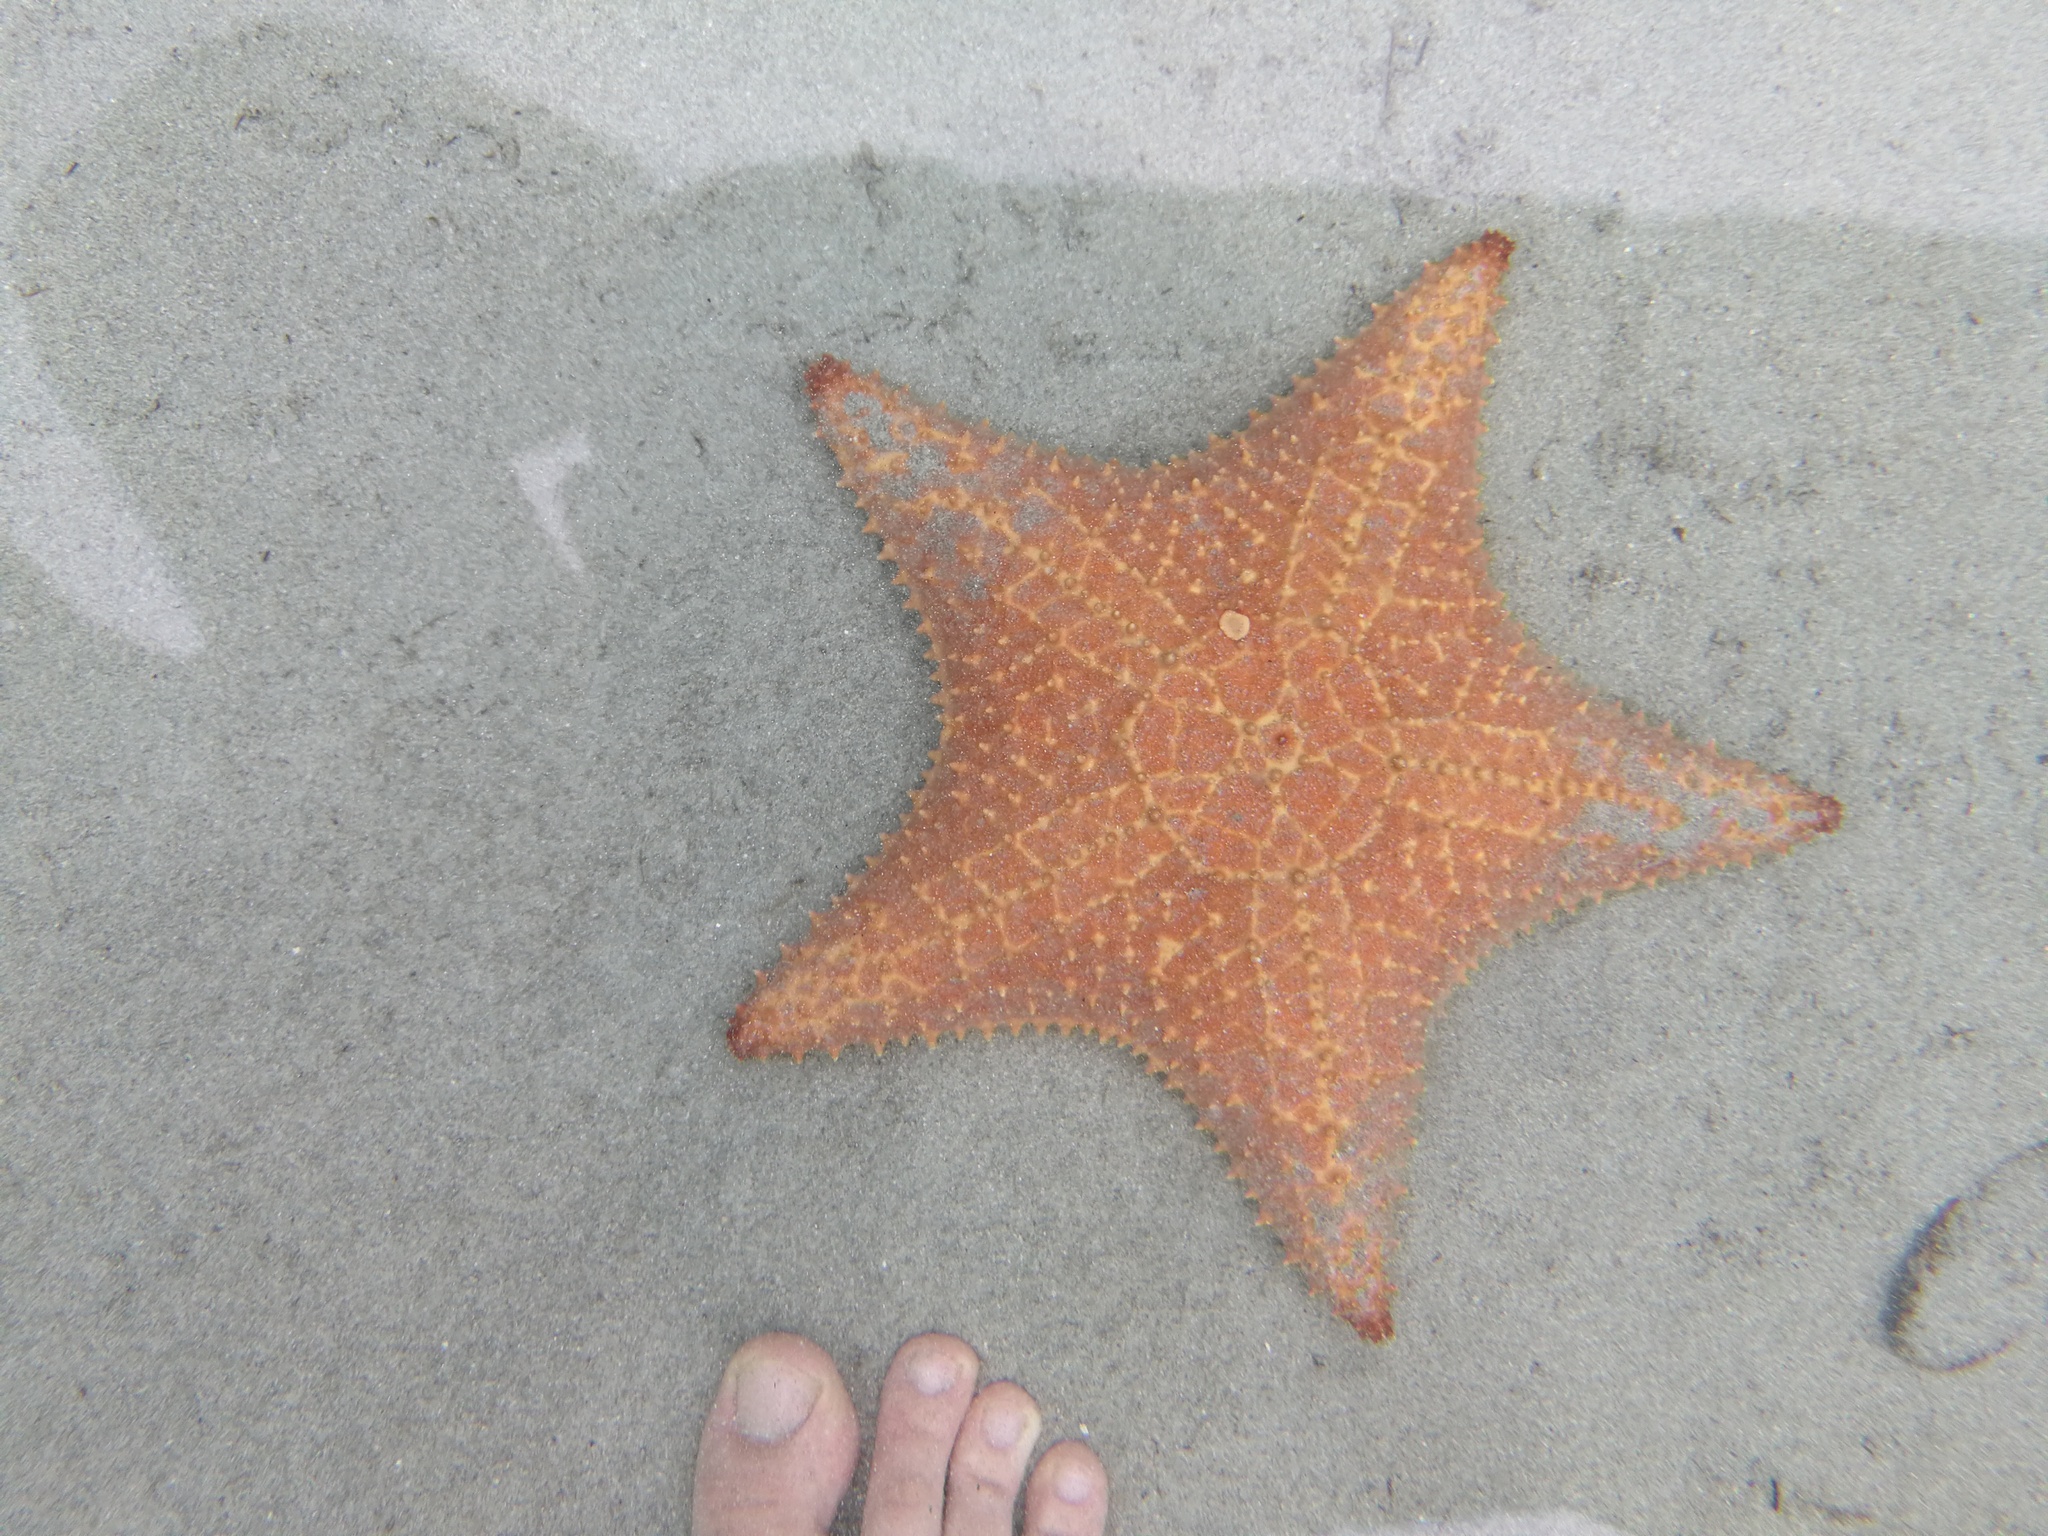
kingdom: Animalia
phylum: Echinodermata
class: Asteroidea
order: Valvatida
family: Oreasteridae
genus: Oreaster
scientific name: Oreaster reticulatus
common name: Cushion sea star
